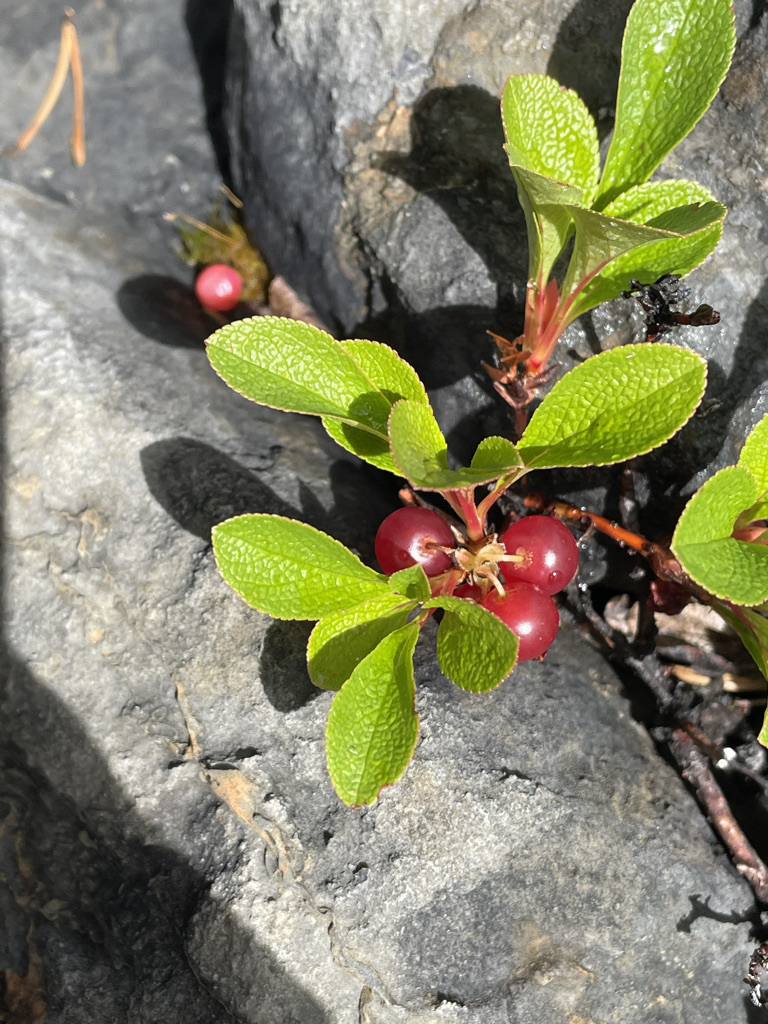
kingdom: Plantae
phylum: Tracheophyta
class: Magnoliopsida
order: Ericales
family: Ericaceae
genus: Arctostaphylos
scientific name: Arctostaphylos rubra
